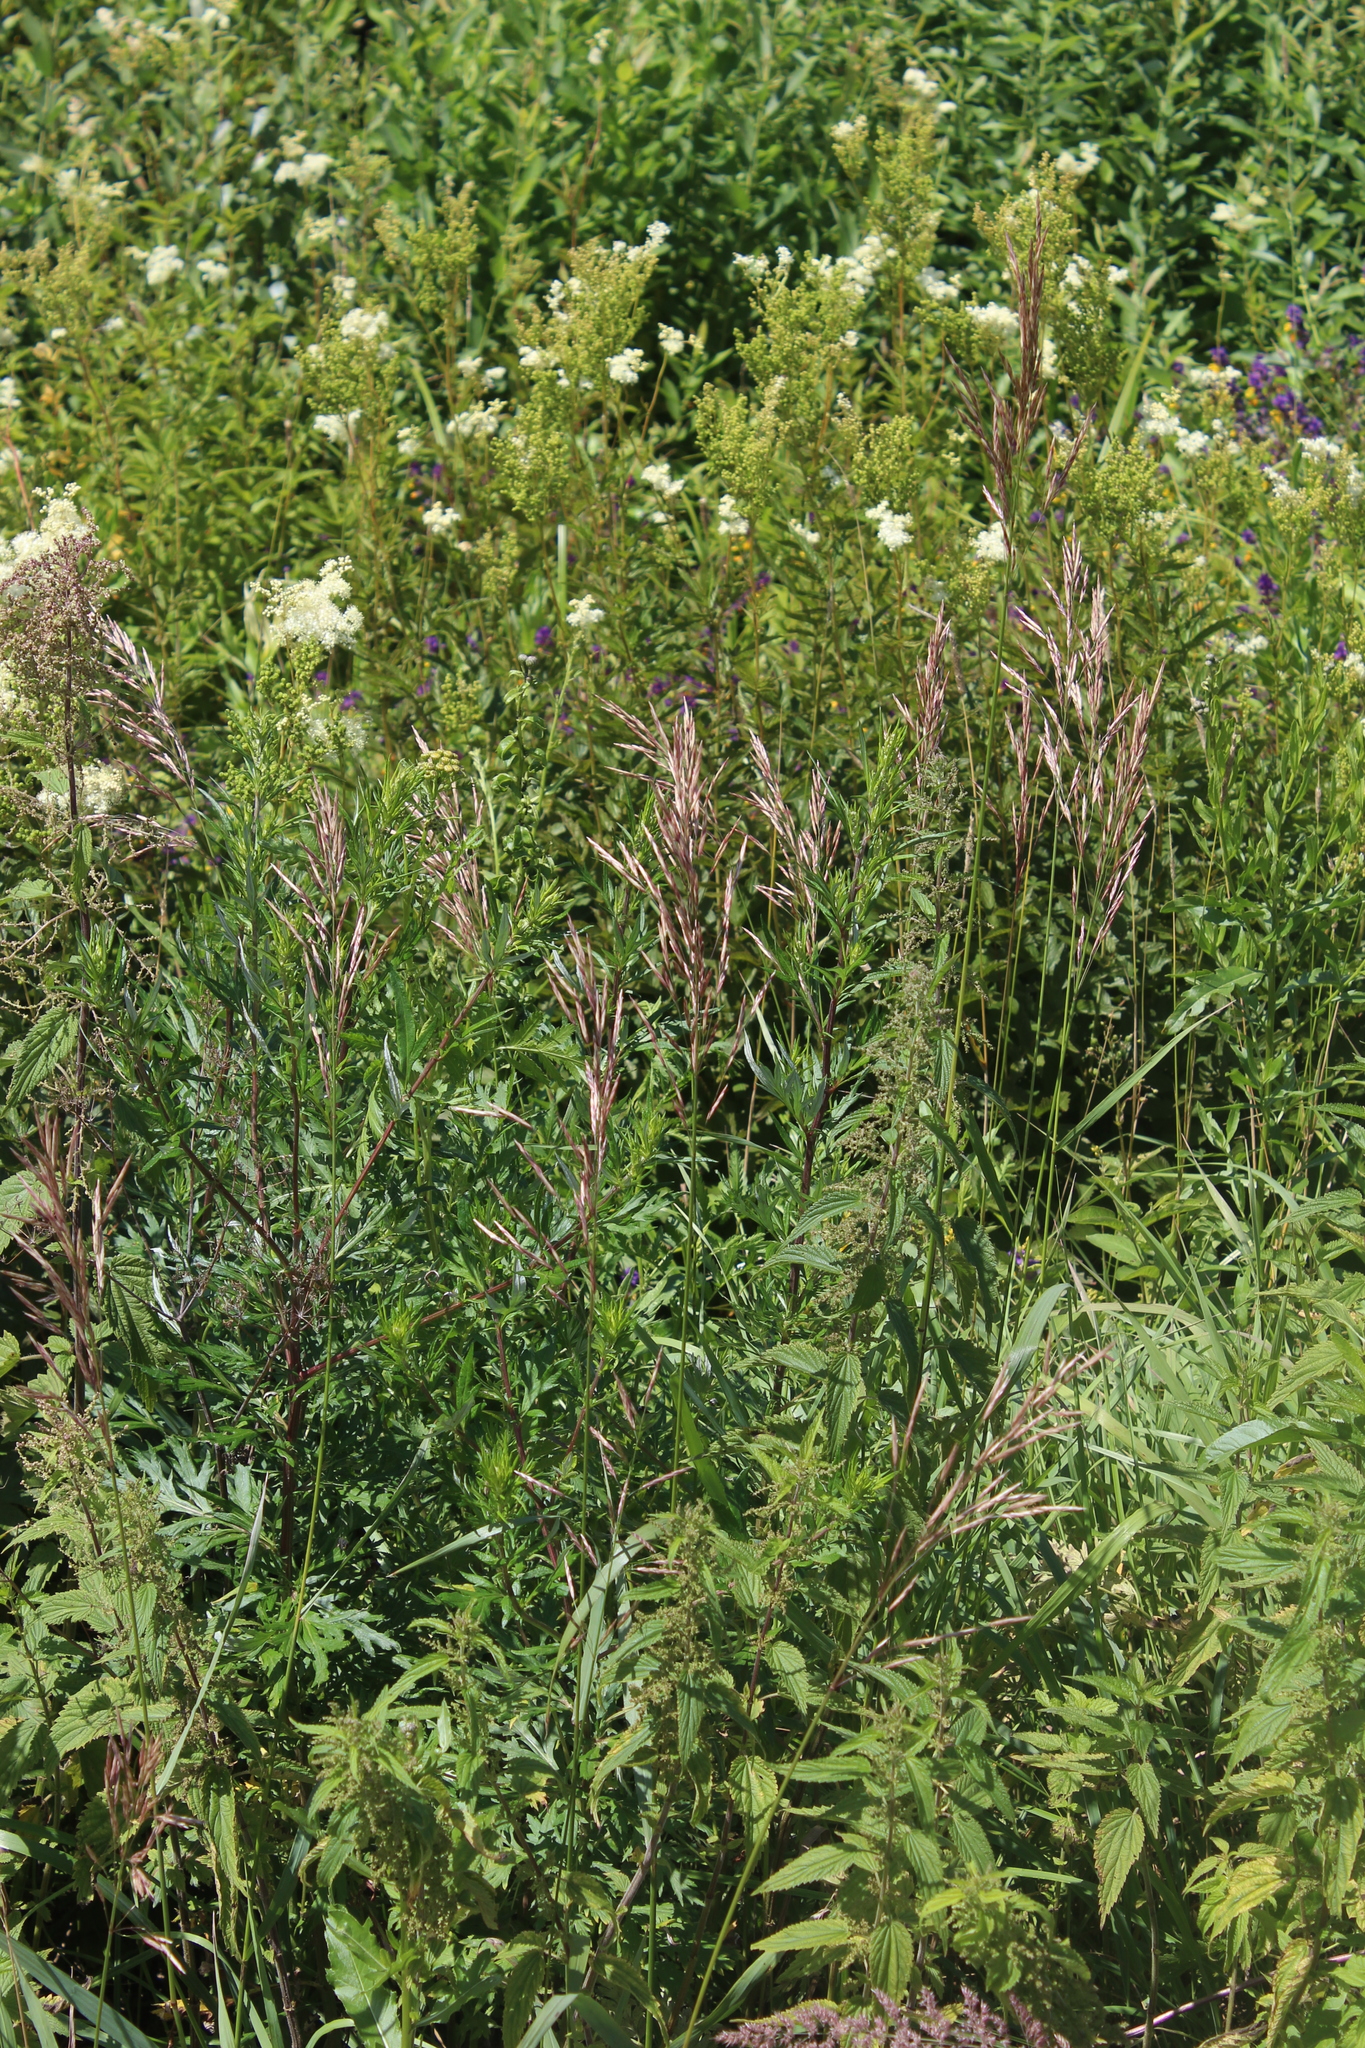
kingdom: Plantae
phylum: Tracheophyta
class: Liliopsida
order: Poales
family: Poaceae
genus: Bromus
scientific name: Bromus inermis
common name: Smooth brome
